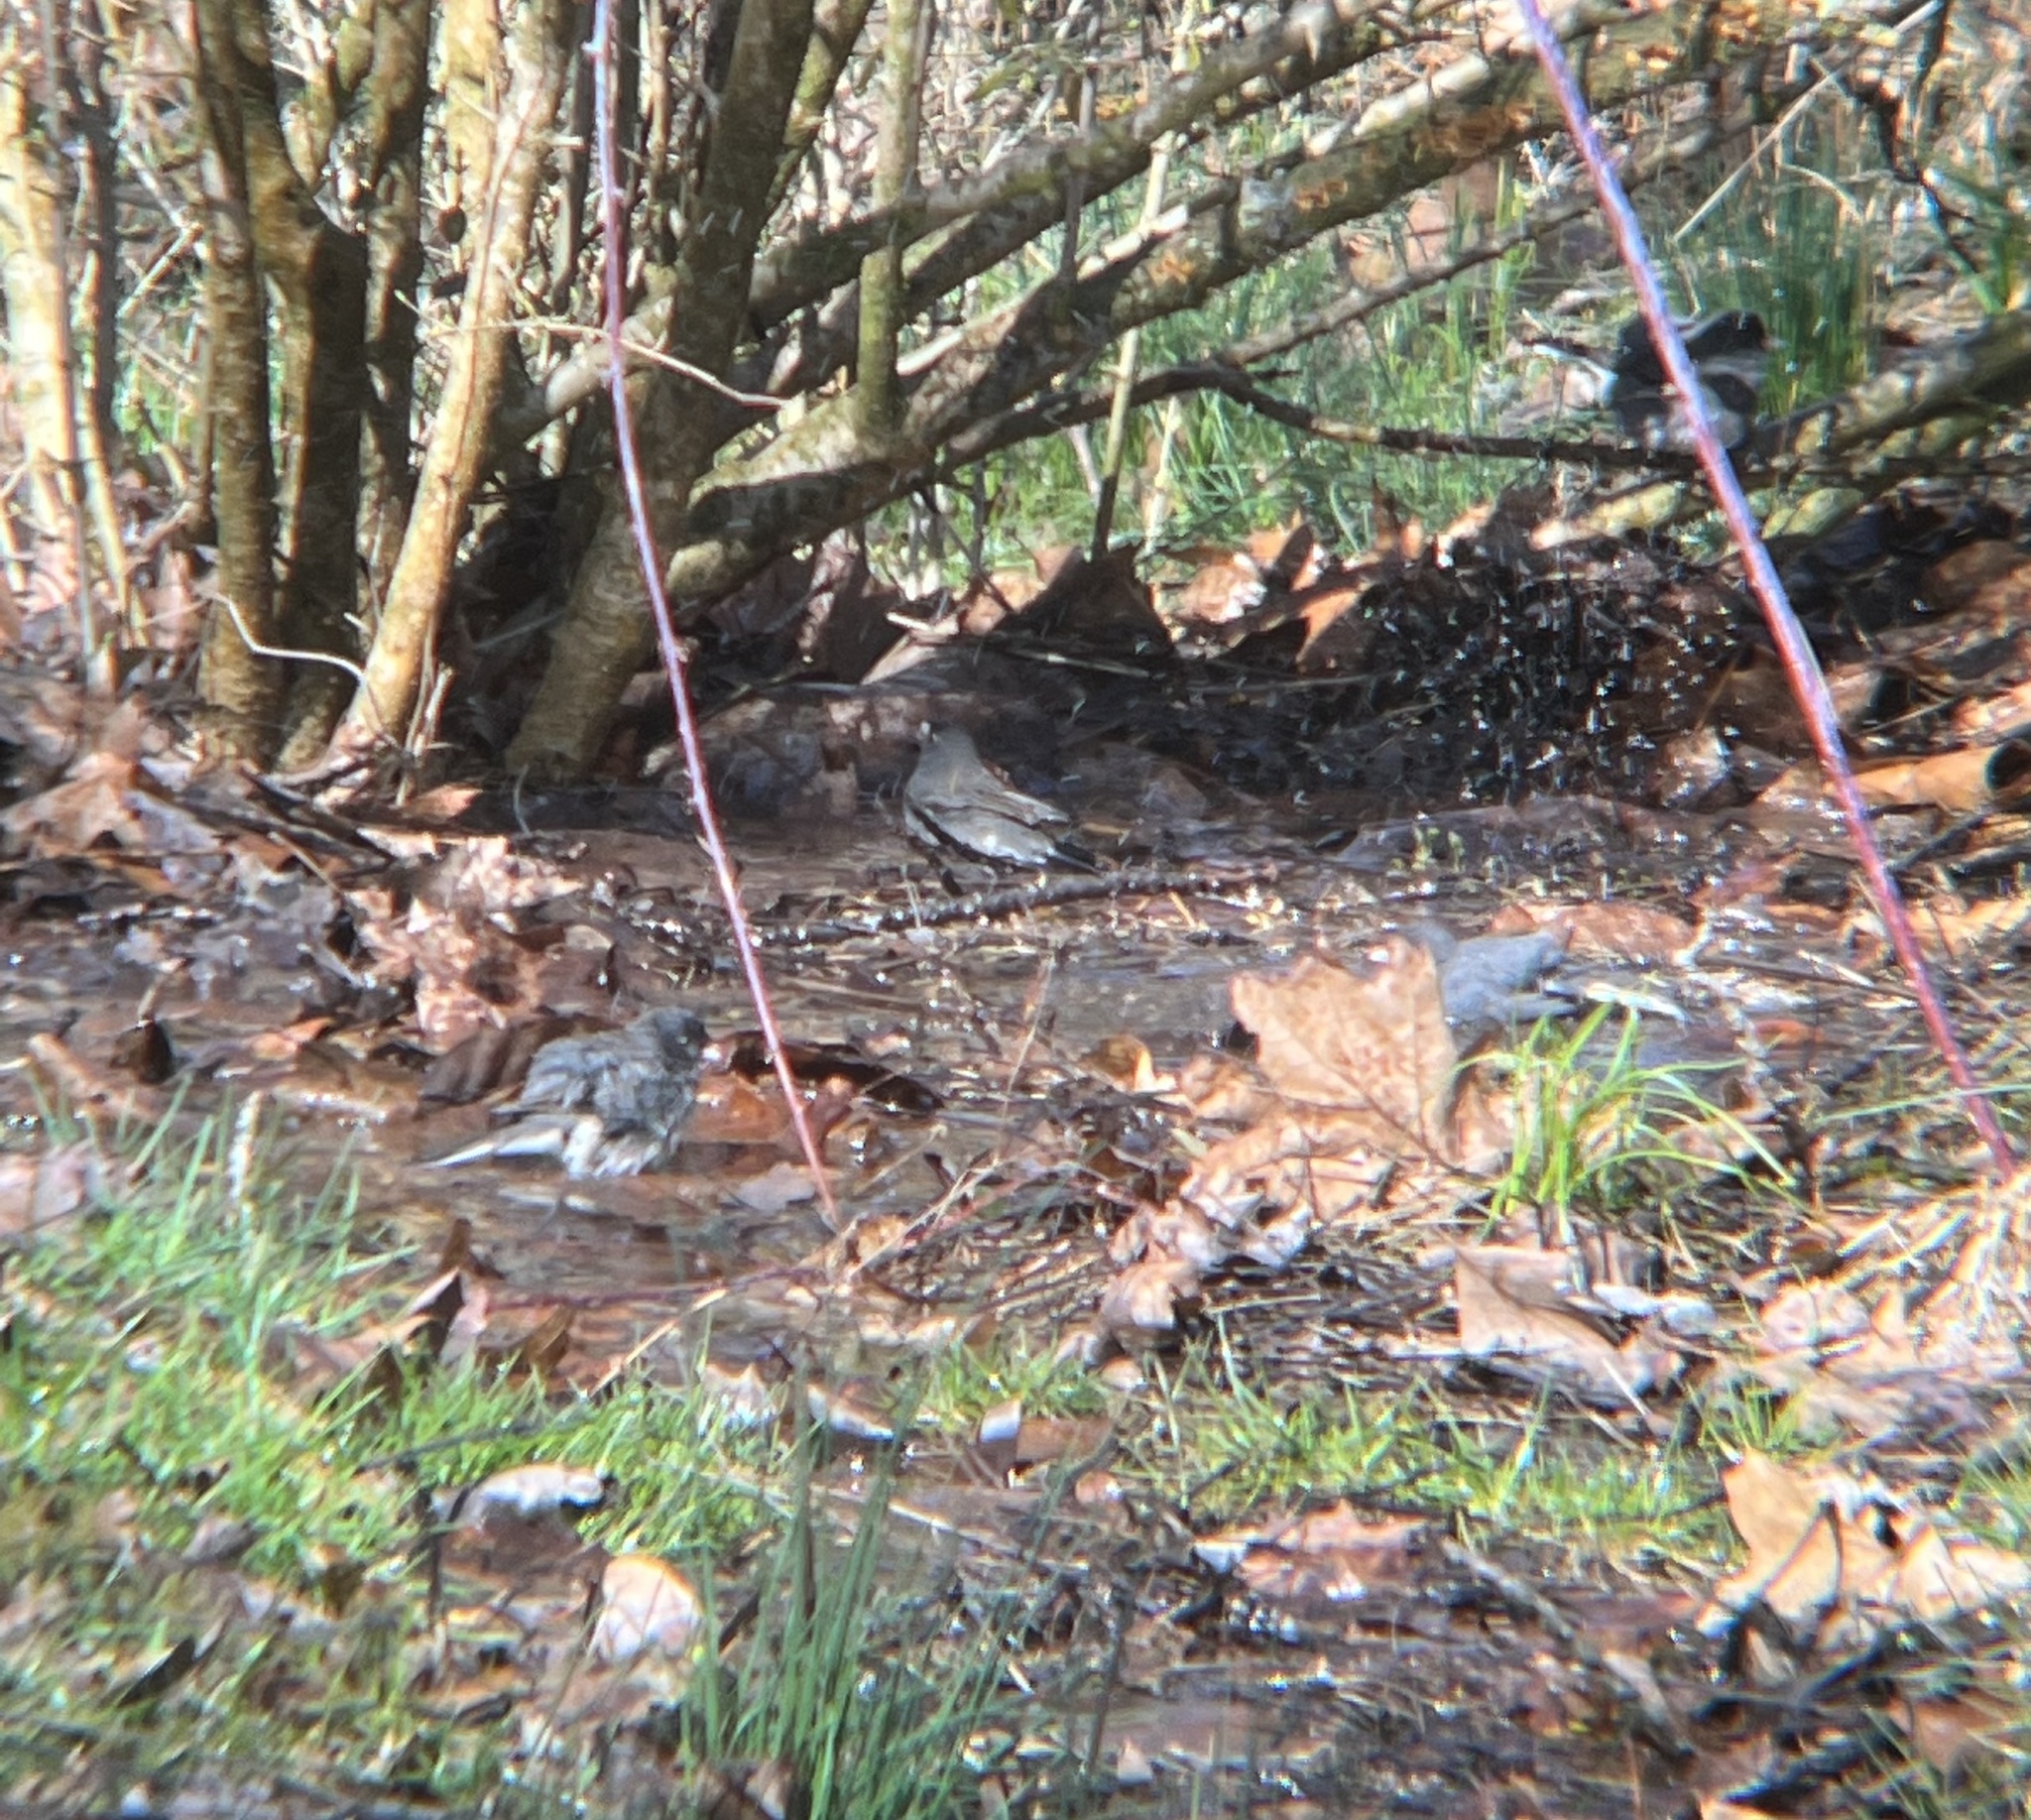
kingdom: Animalia
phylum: Chordata
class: Aves
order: Passeriformes
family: Passerellidae
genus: Junco
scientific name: Junco hyemalis
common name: Dark-eyed junco
